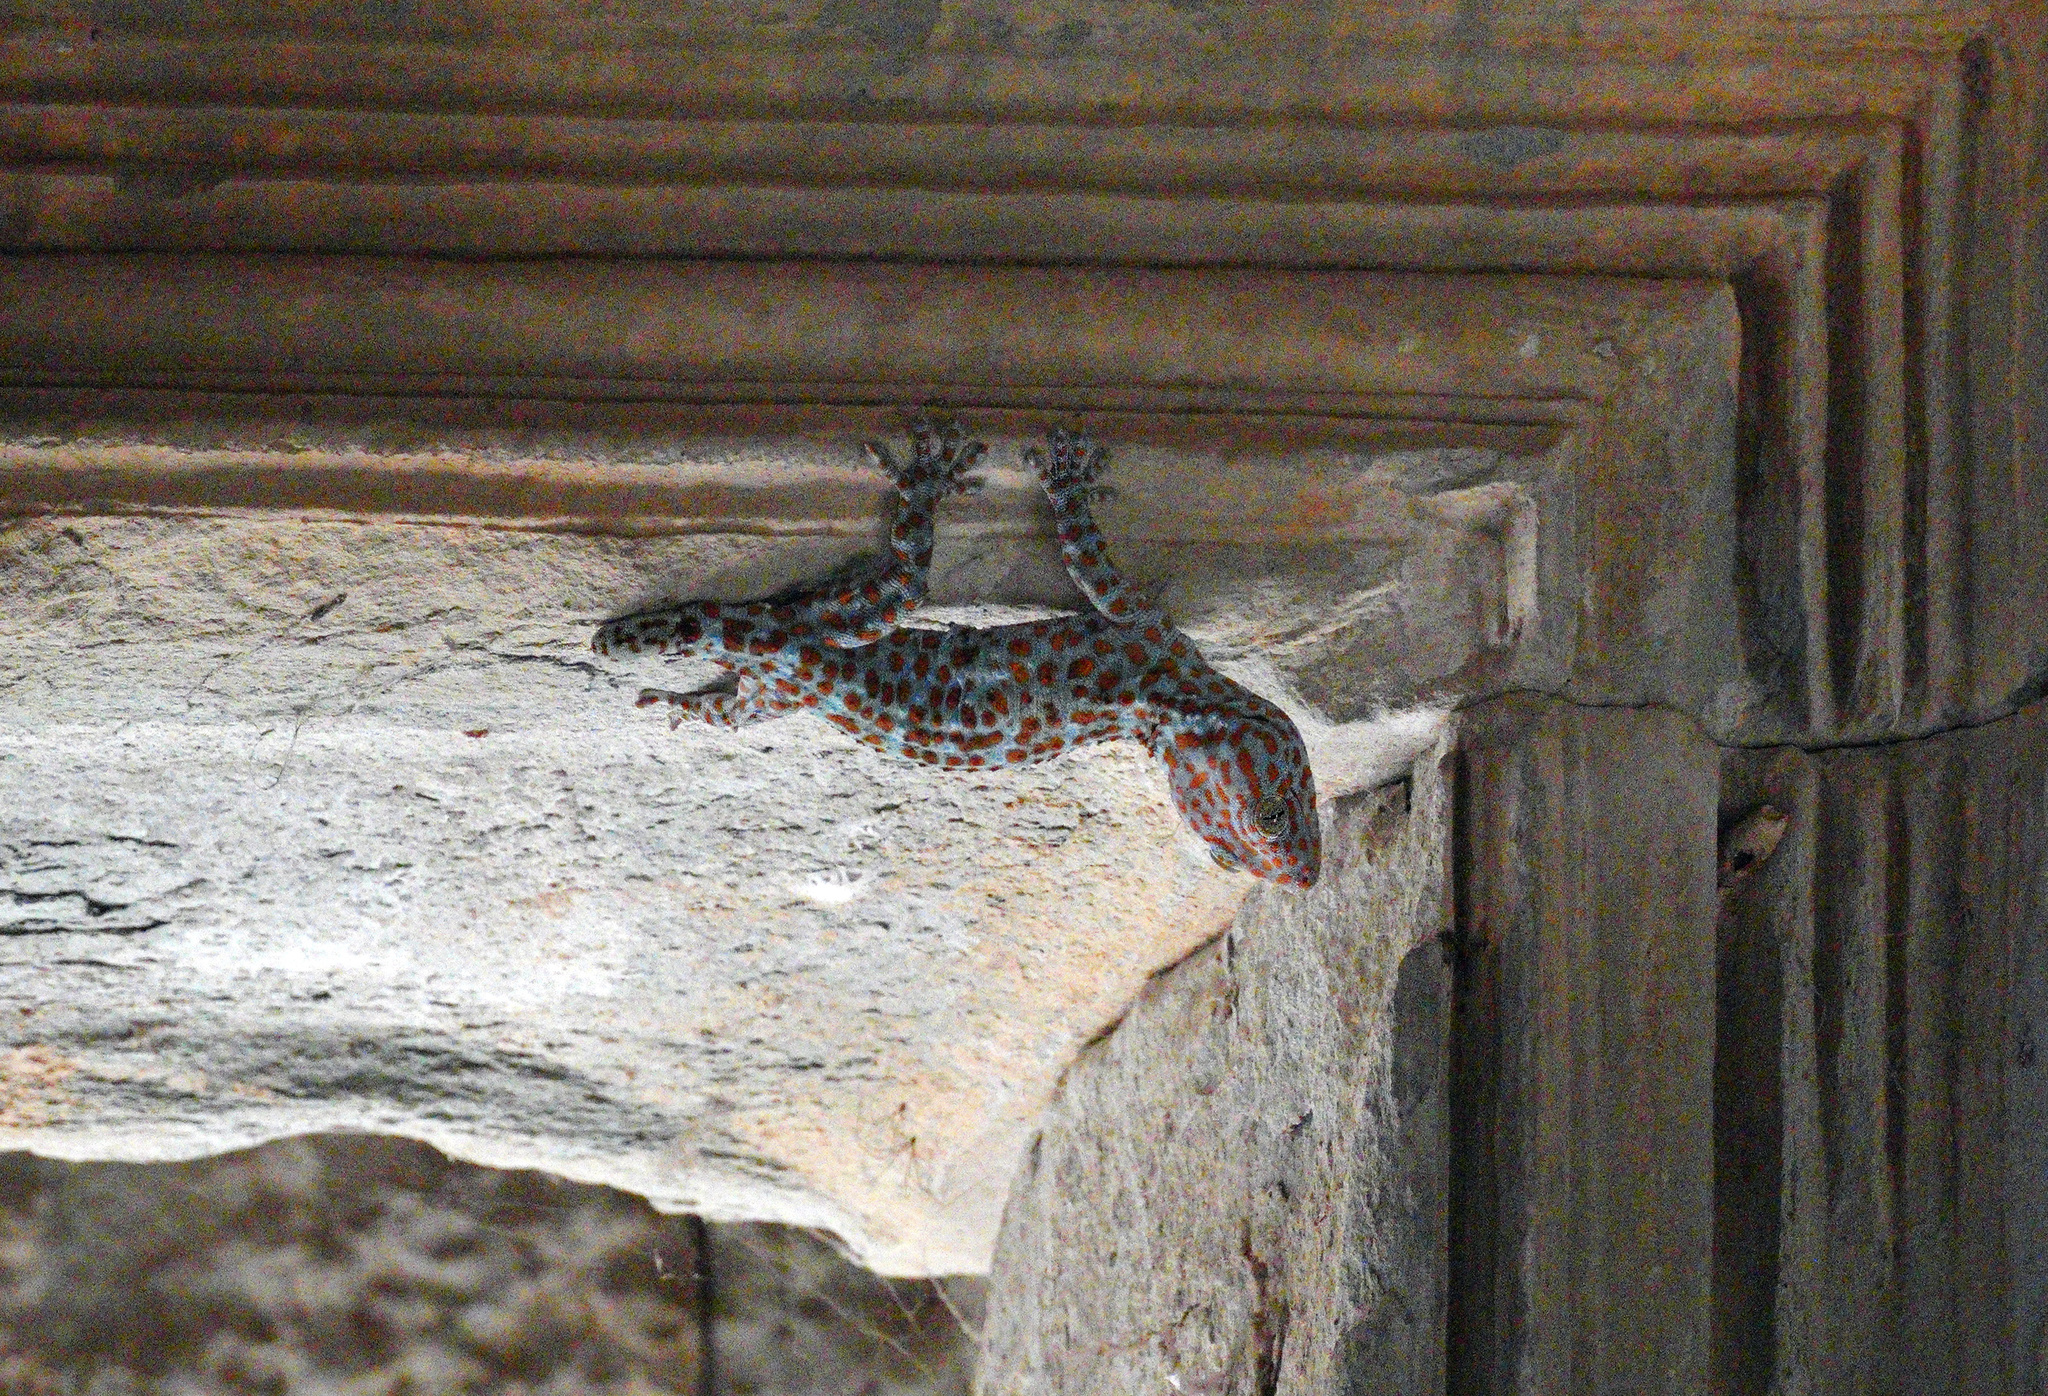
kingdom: Animalia
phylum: Chordata
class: Squamata
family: Gekkonidae
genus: Gekko
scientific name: Gekko gecko
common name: Tokay gecko
